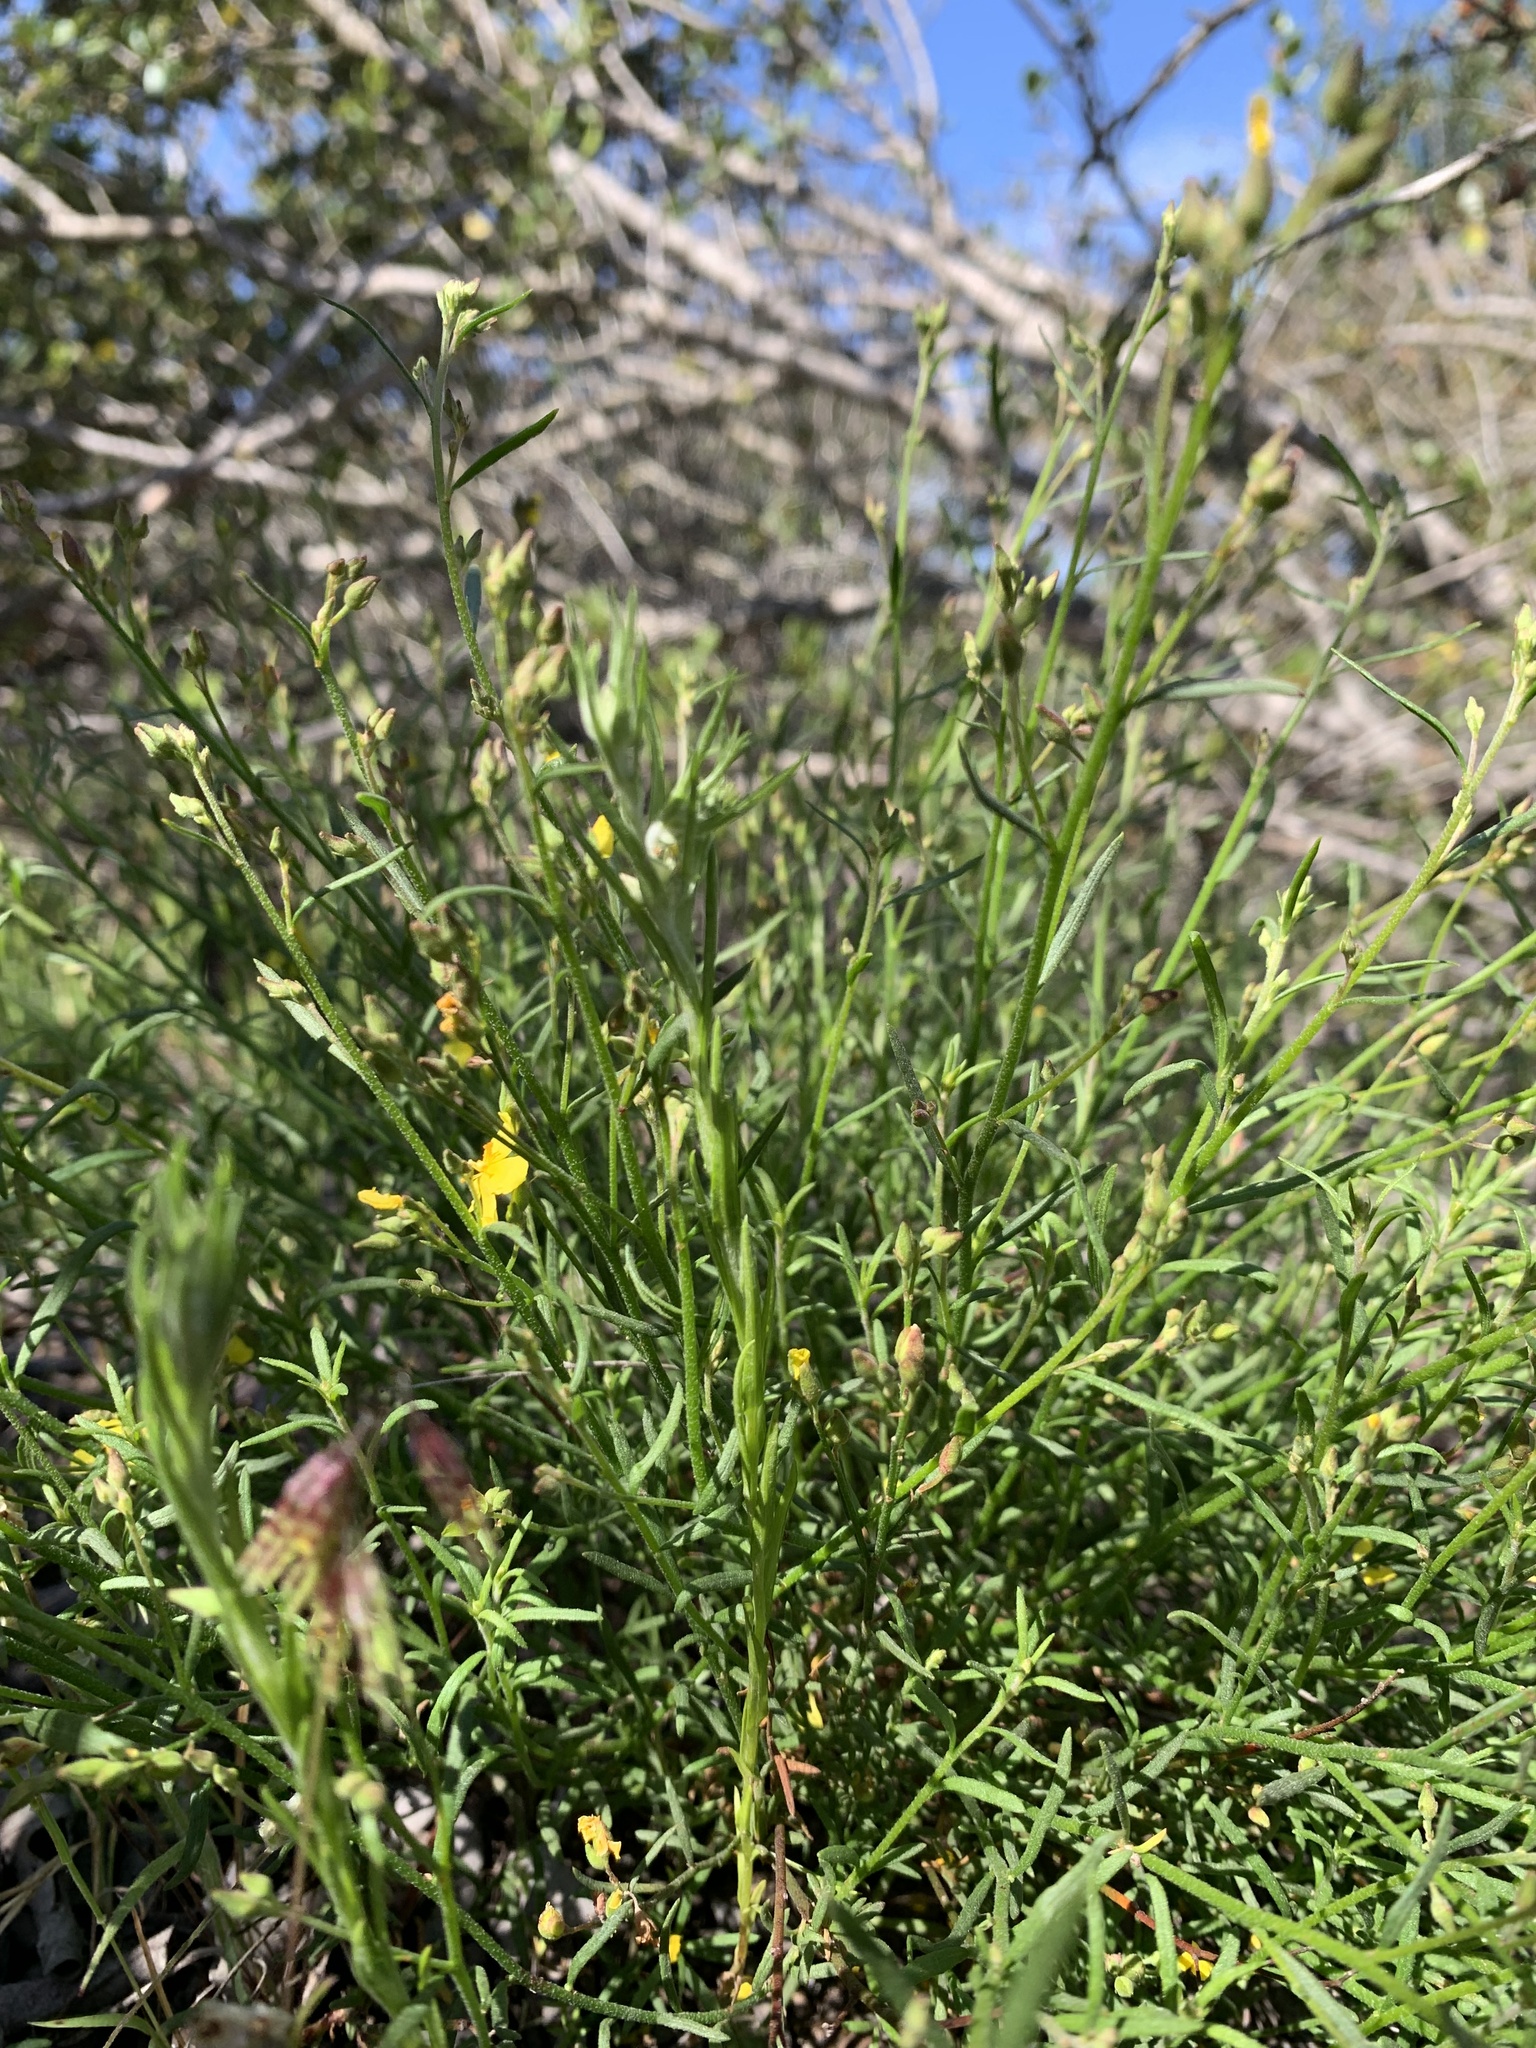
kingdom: Plantae
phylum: Tracheophyta
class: Magnoliopsida
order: Malvales
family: Cistaceae
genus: Crocanthemum
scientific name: Crocanthemum scoparium
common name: Broom-rose
